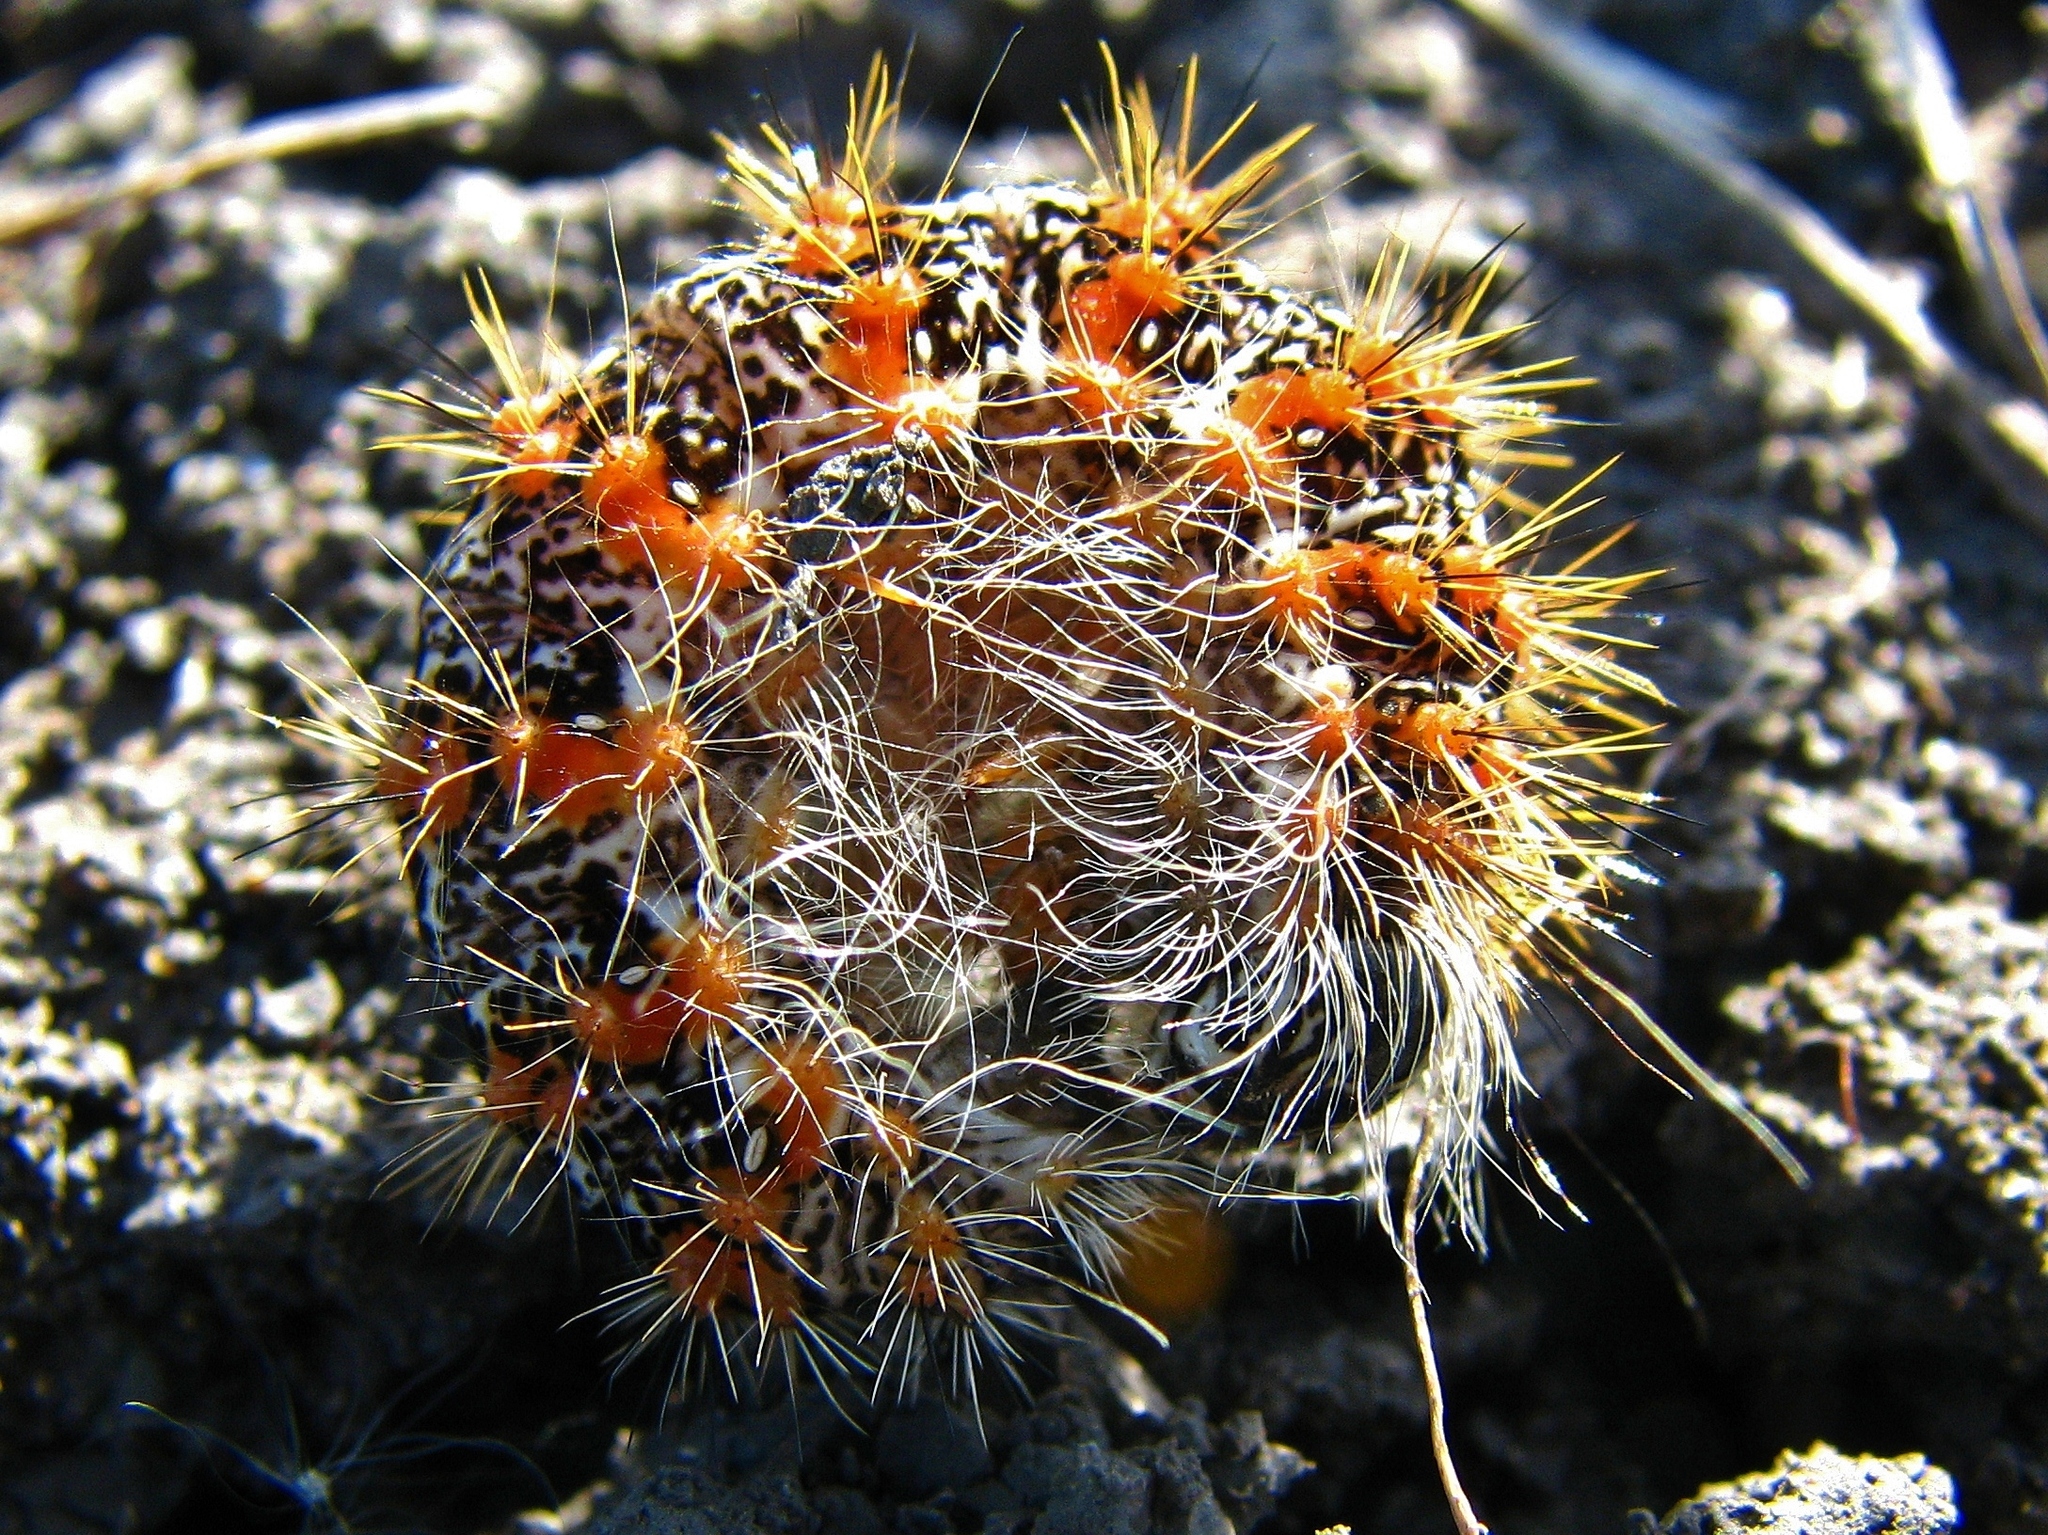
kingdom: Animalia
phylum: Arthropoda
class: Insecta
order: Lepidoptera
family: Noctuidae
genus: Acronicta
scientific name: Acronicta insularis
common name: Henry's marsh moth
